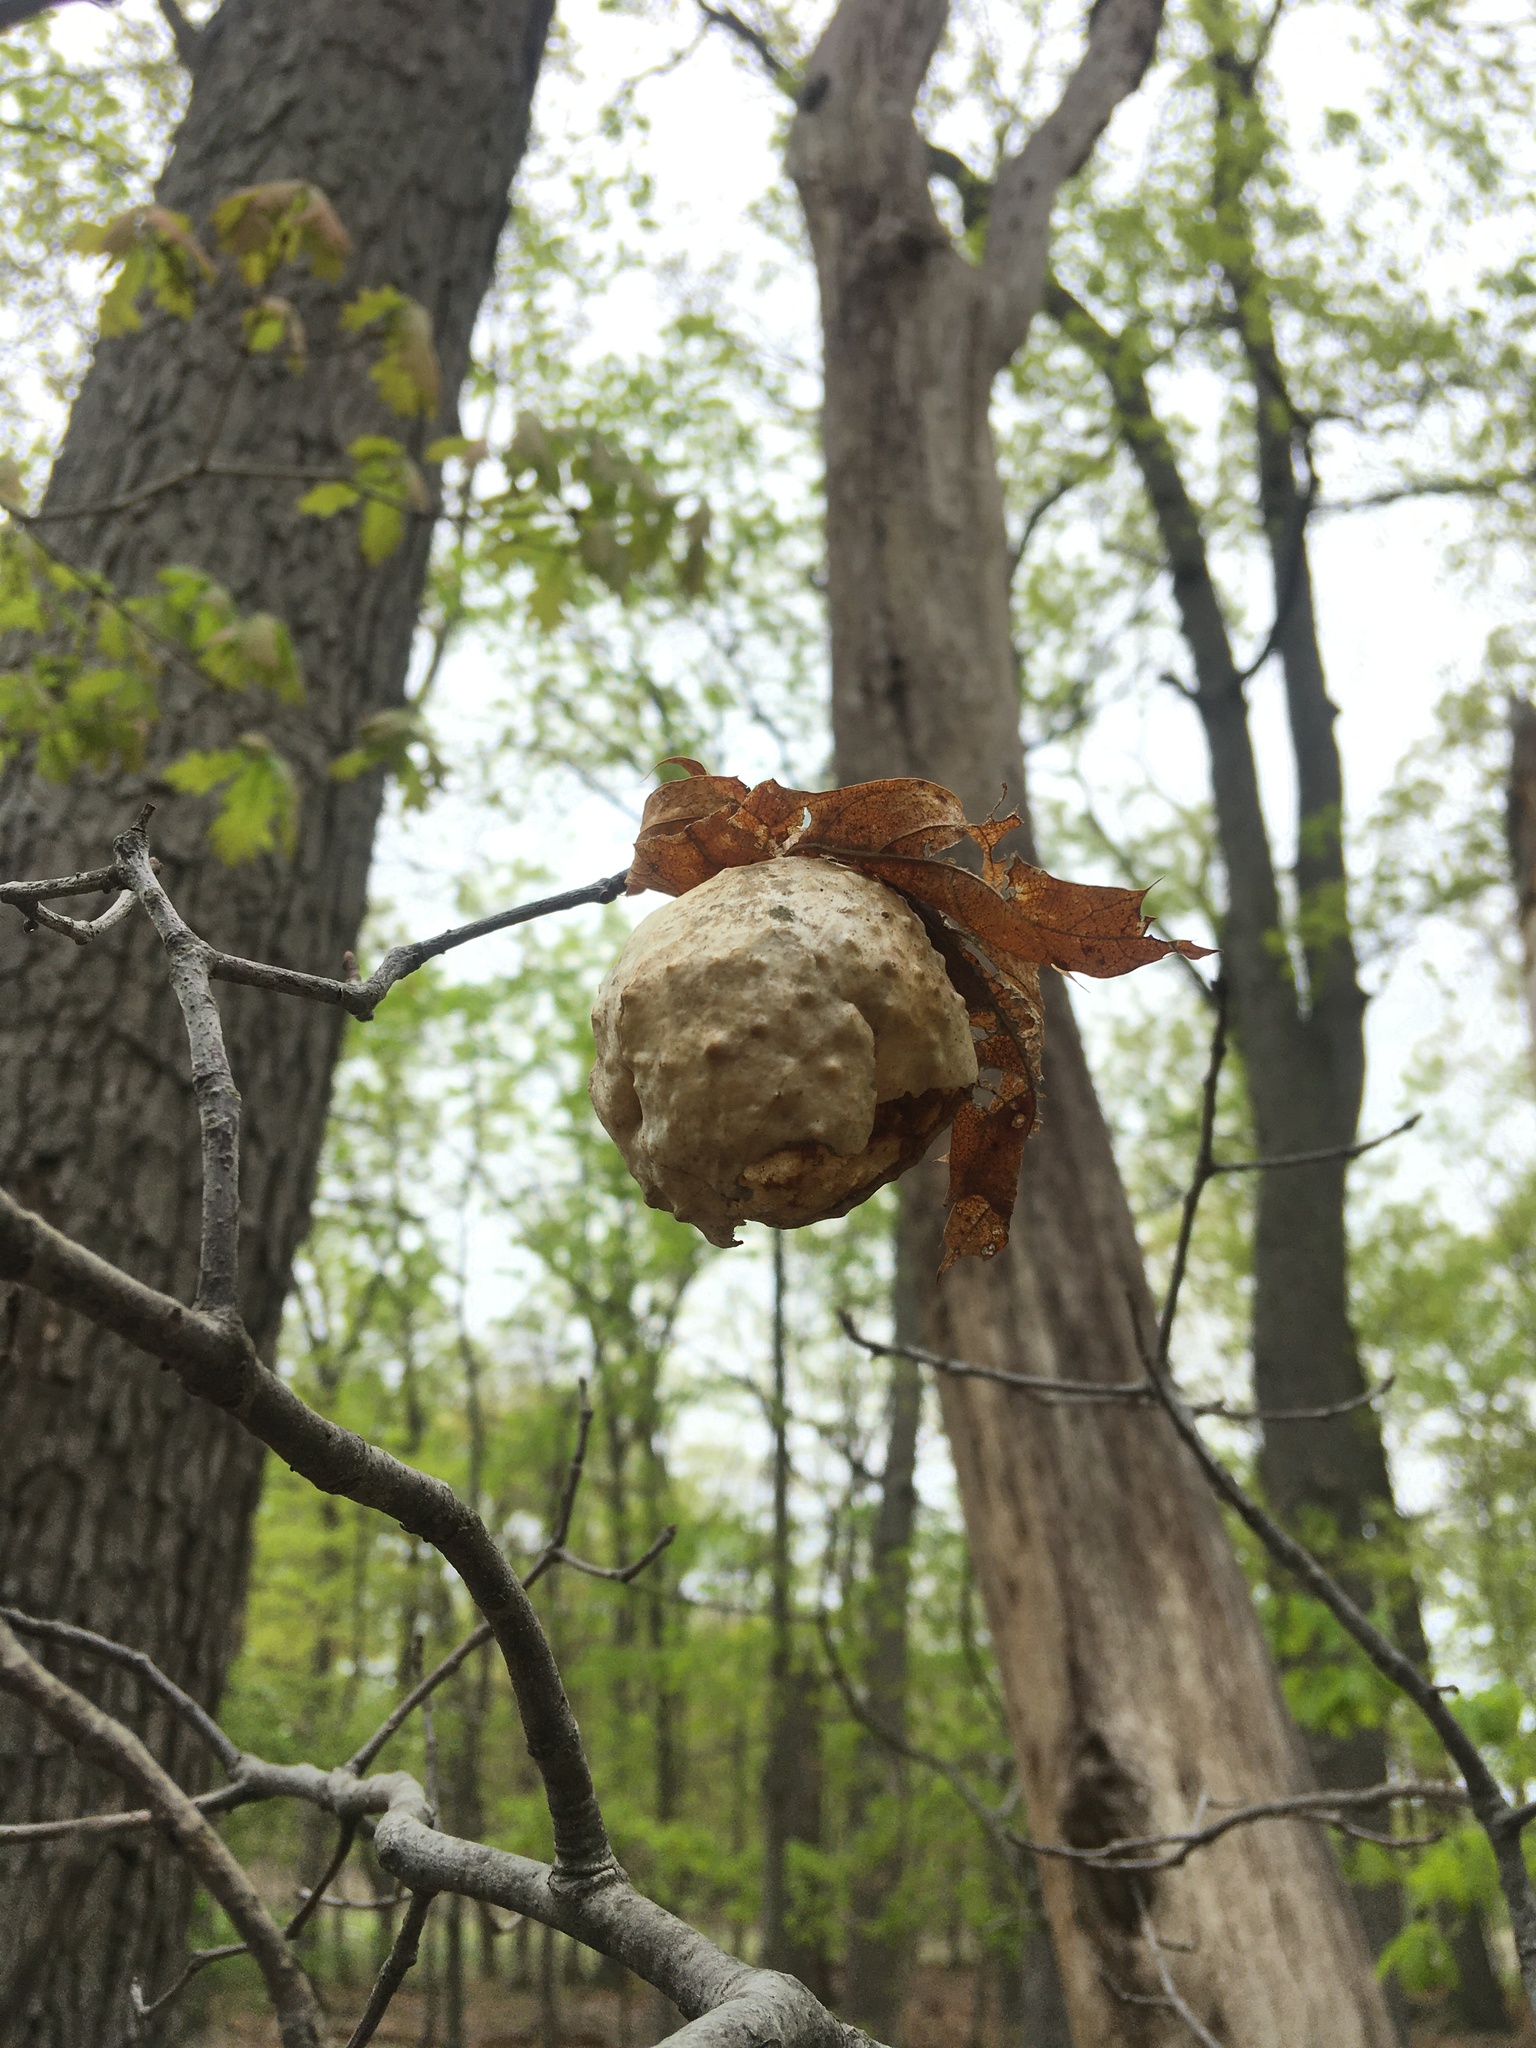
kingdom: Animalia
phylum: Arthropoda
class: Insecta
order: Hymenoptera
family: Cynipidae
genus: Amphibolips
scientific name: Amphibolips
